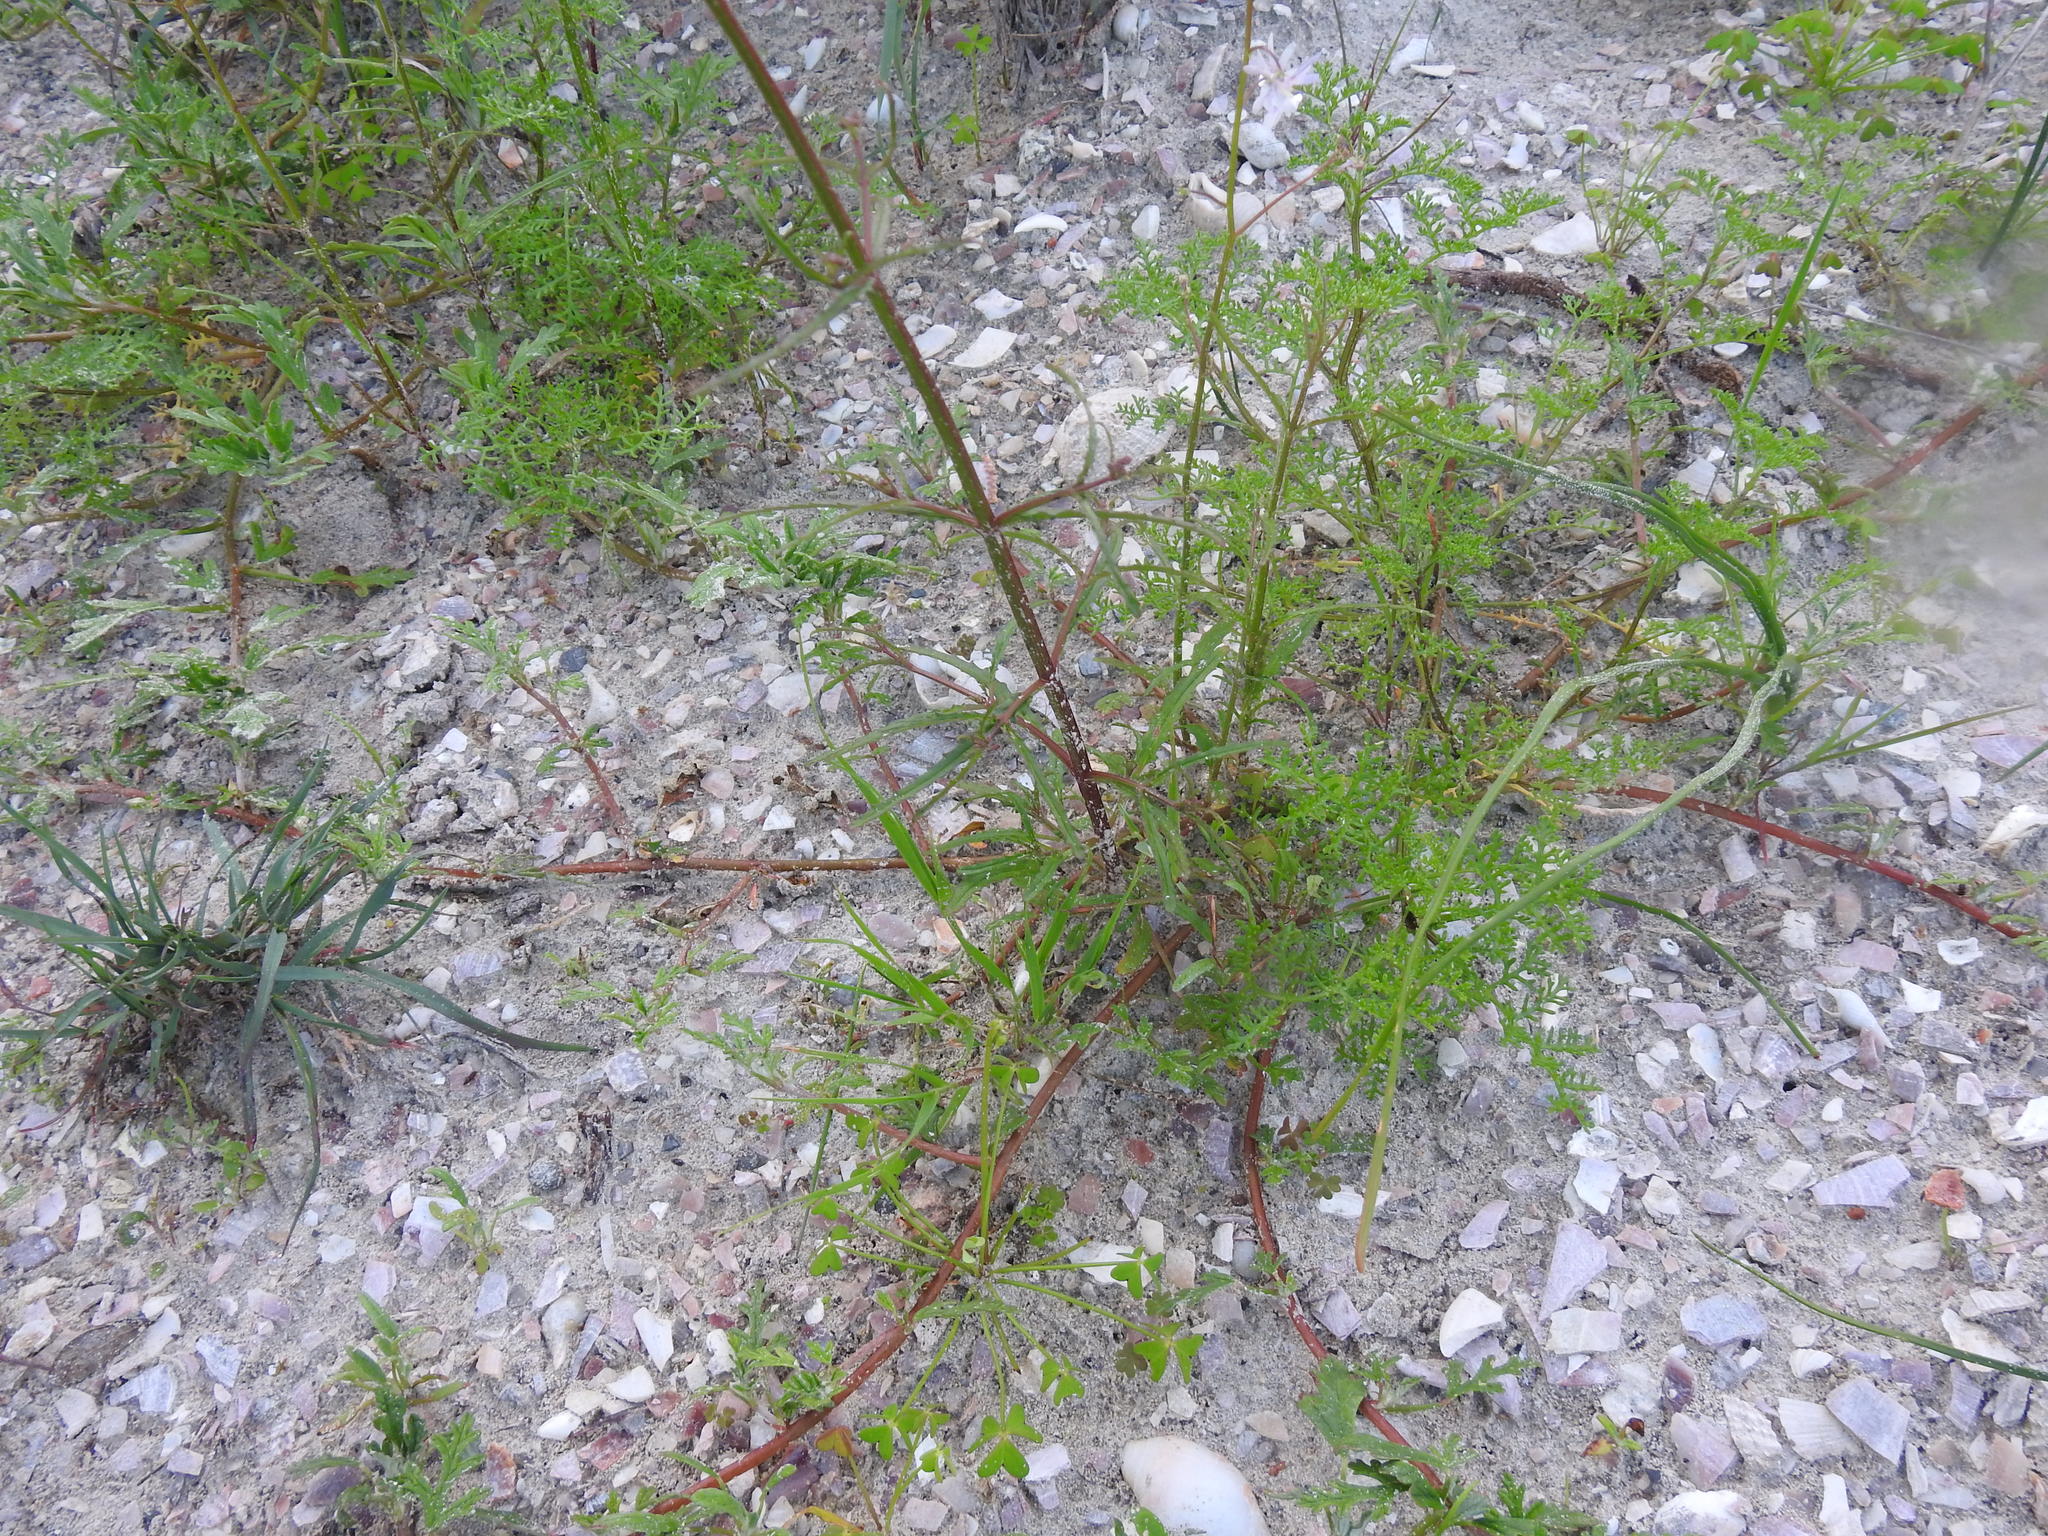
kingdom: Plantae
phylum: Tracheophyta
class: Magnoliopsida
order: Lamiales
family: Scrophulariaceae
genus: Nemesia
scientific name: Nemesia affinis
